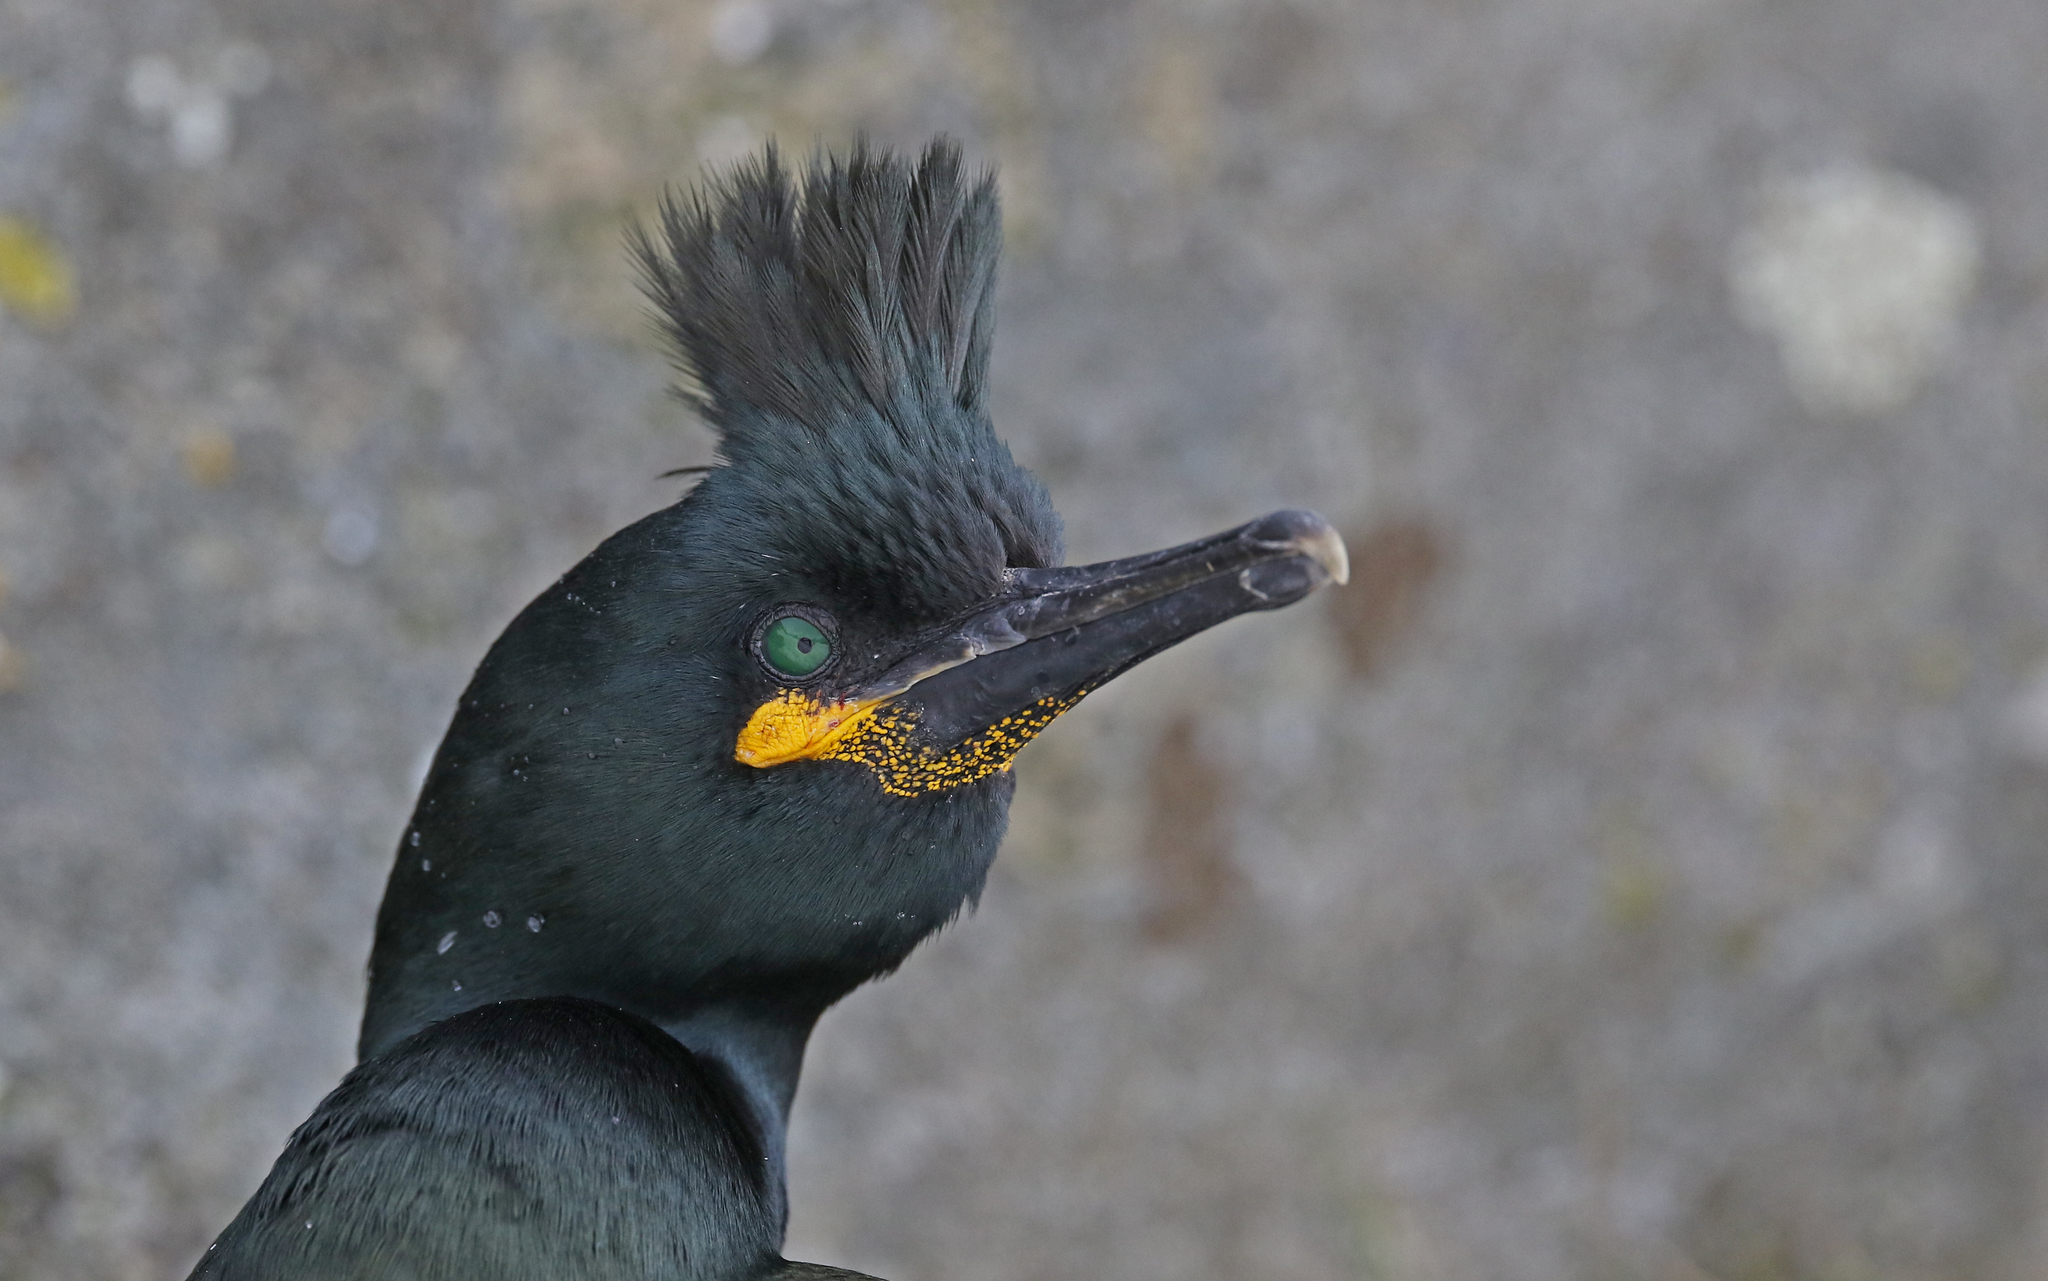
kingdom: Animalia
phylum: Chordata
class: Aves
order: Suliformes
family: Phalacrocoracidae
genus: Phalacrocorax
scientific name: Phalacrocorax aristotelis
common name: European shag
